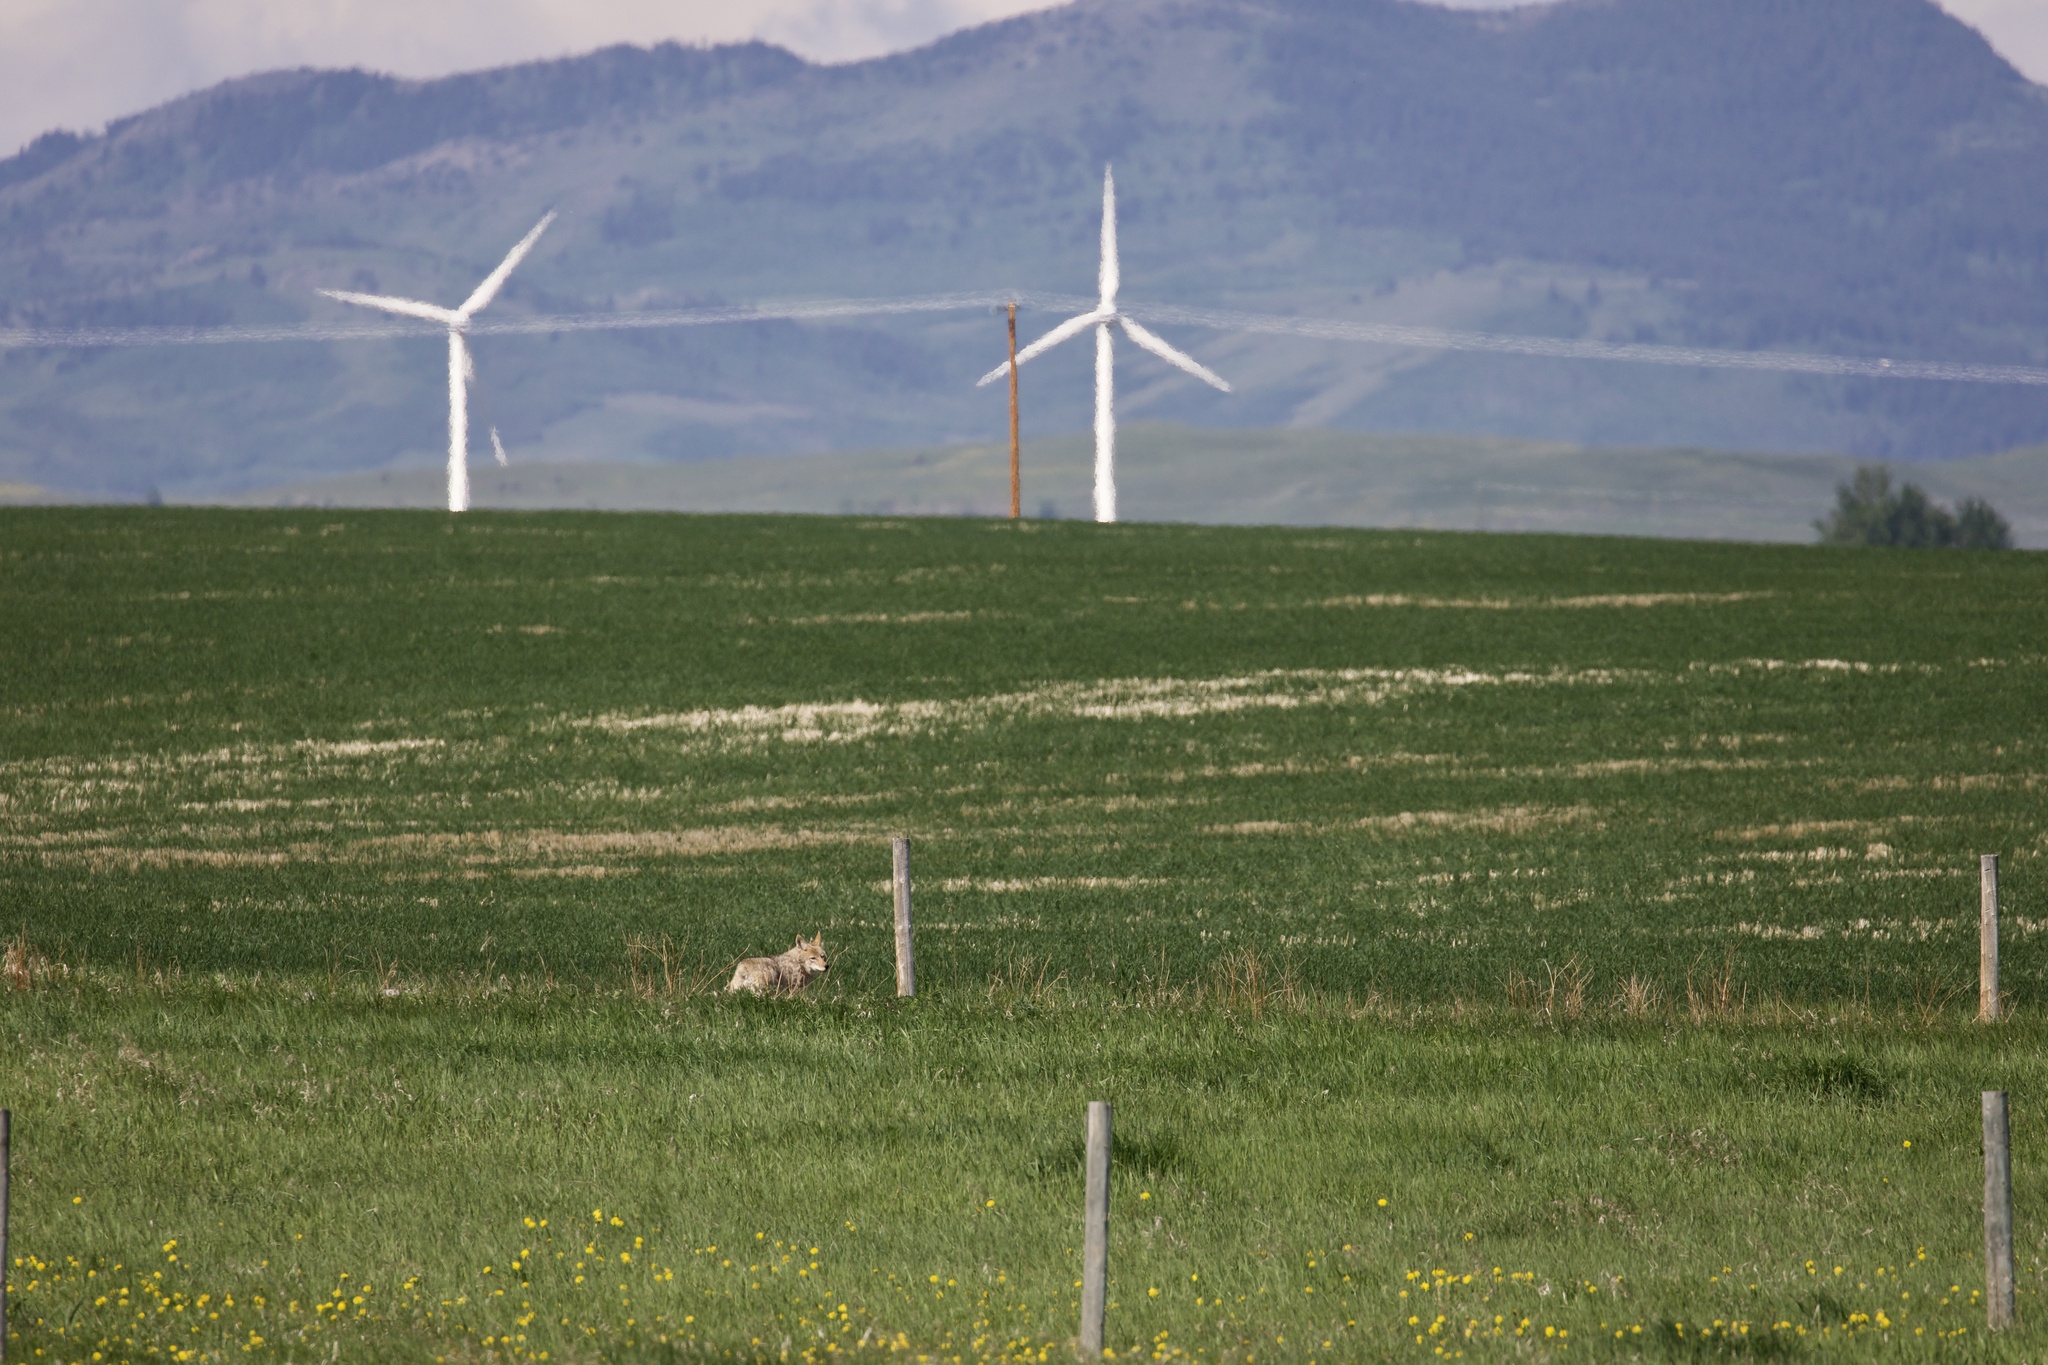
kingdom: Animalia
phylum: Chordata
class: Mammalia
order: Carnivora
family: Canidae
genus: Canis
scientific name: Canis latrans
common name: Coyote
